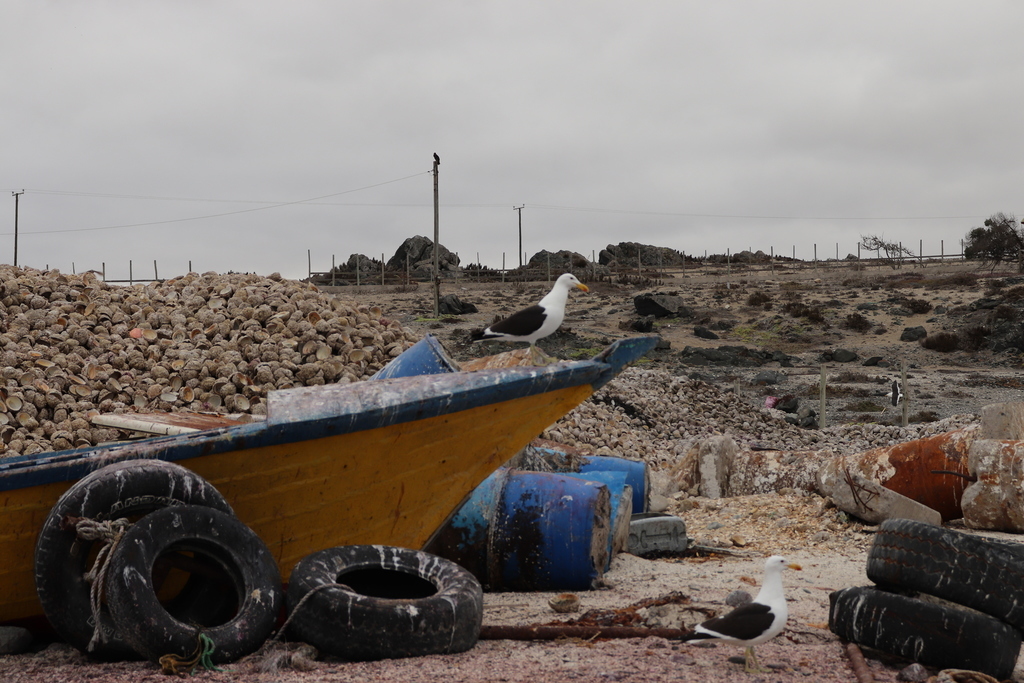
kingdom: Animalia
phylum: Chordata
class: Aves
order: Charadriiformes
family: Laridae
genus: Larus
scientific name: Larus dominicanus
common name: Kelp gull
